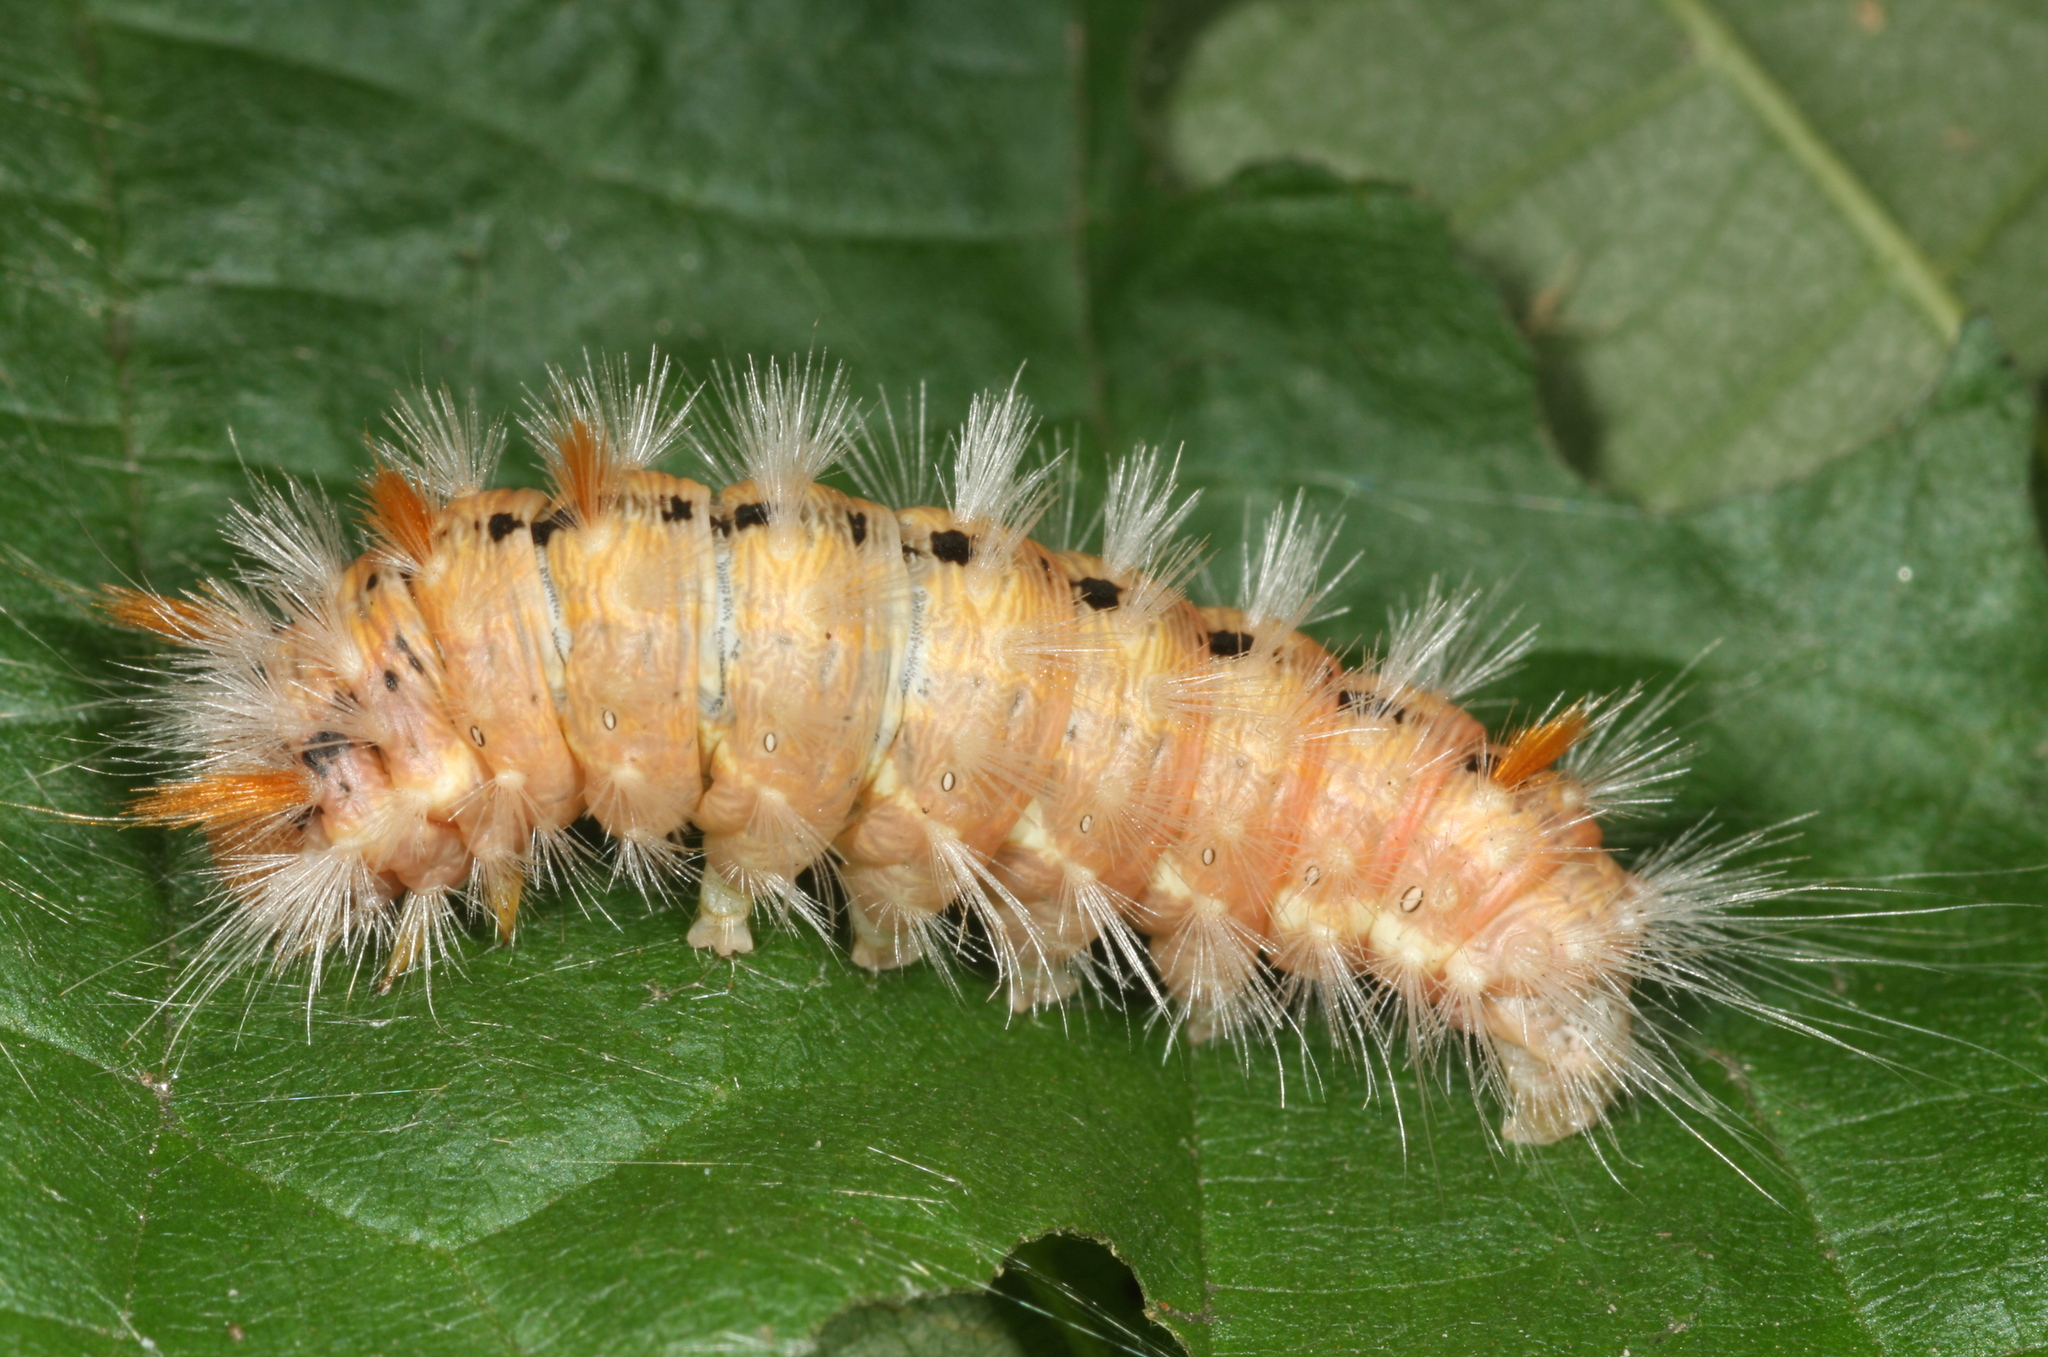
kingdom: Animalia
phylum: Arthropoda
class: Insecta
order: Lepidoptera
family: Noctuidae
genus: Colocasia
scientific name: Colocasia coryli
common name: Nut-tree tussock
